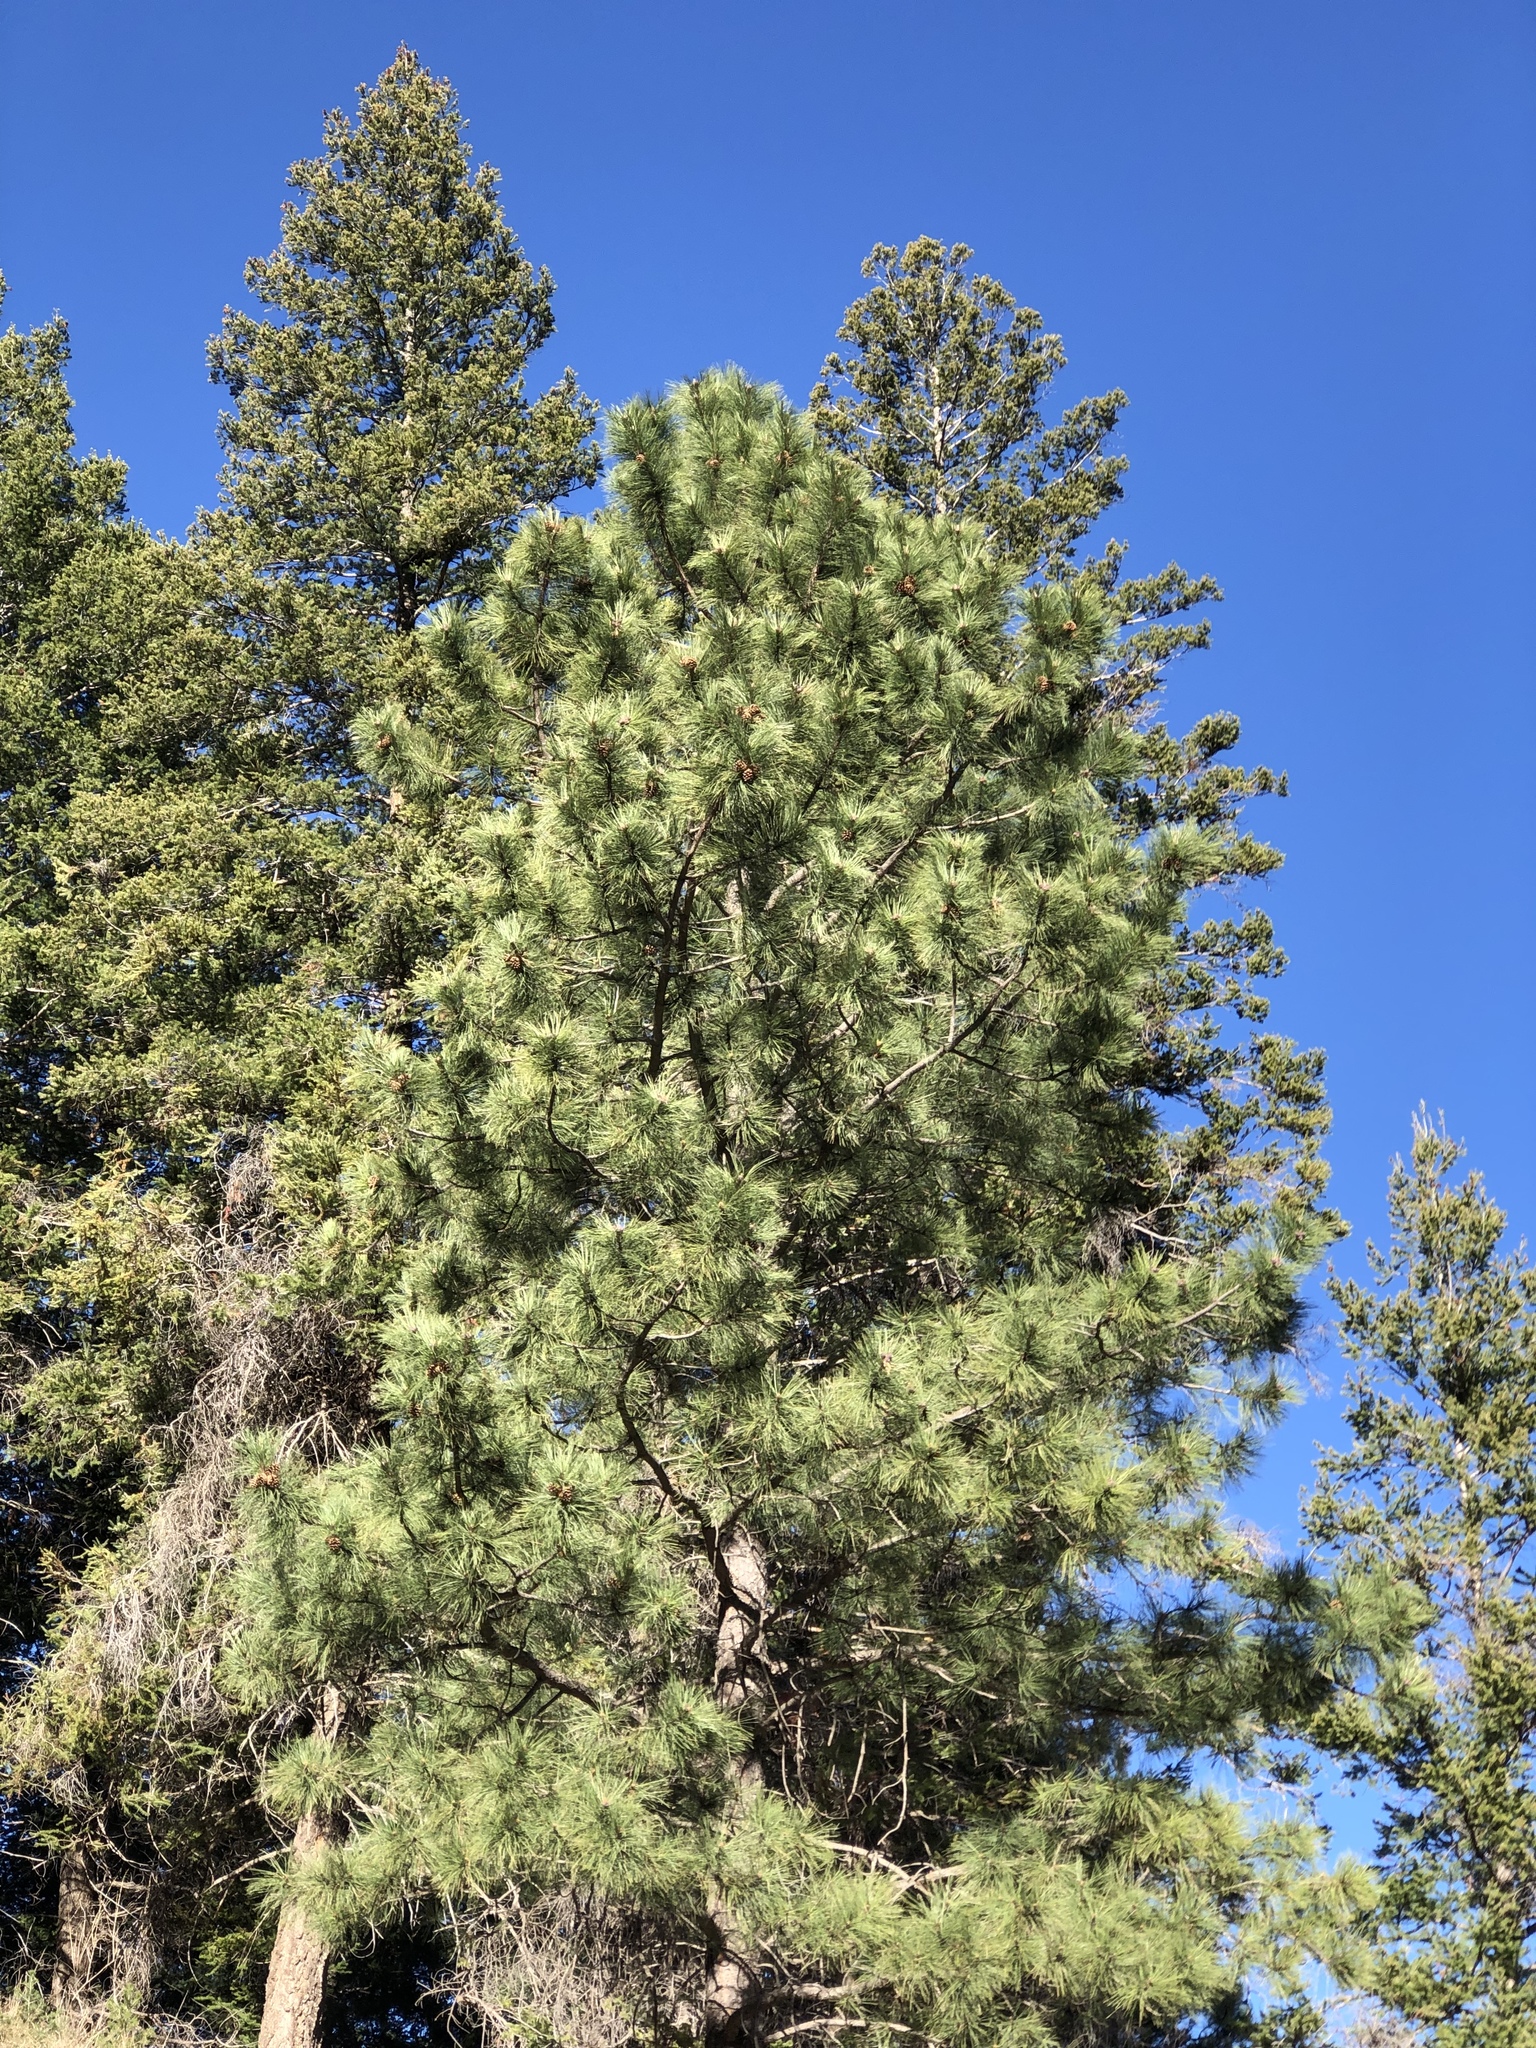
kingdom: Plantae
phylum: Tracheophyta
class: Pinopsida
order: Pinales
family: Pinaceae
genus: Pinus
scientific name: Pinus ponderosa
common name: Western yellow-pine
